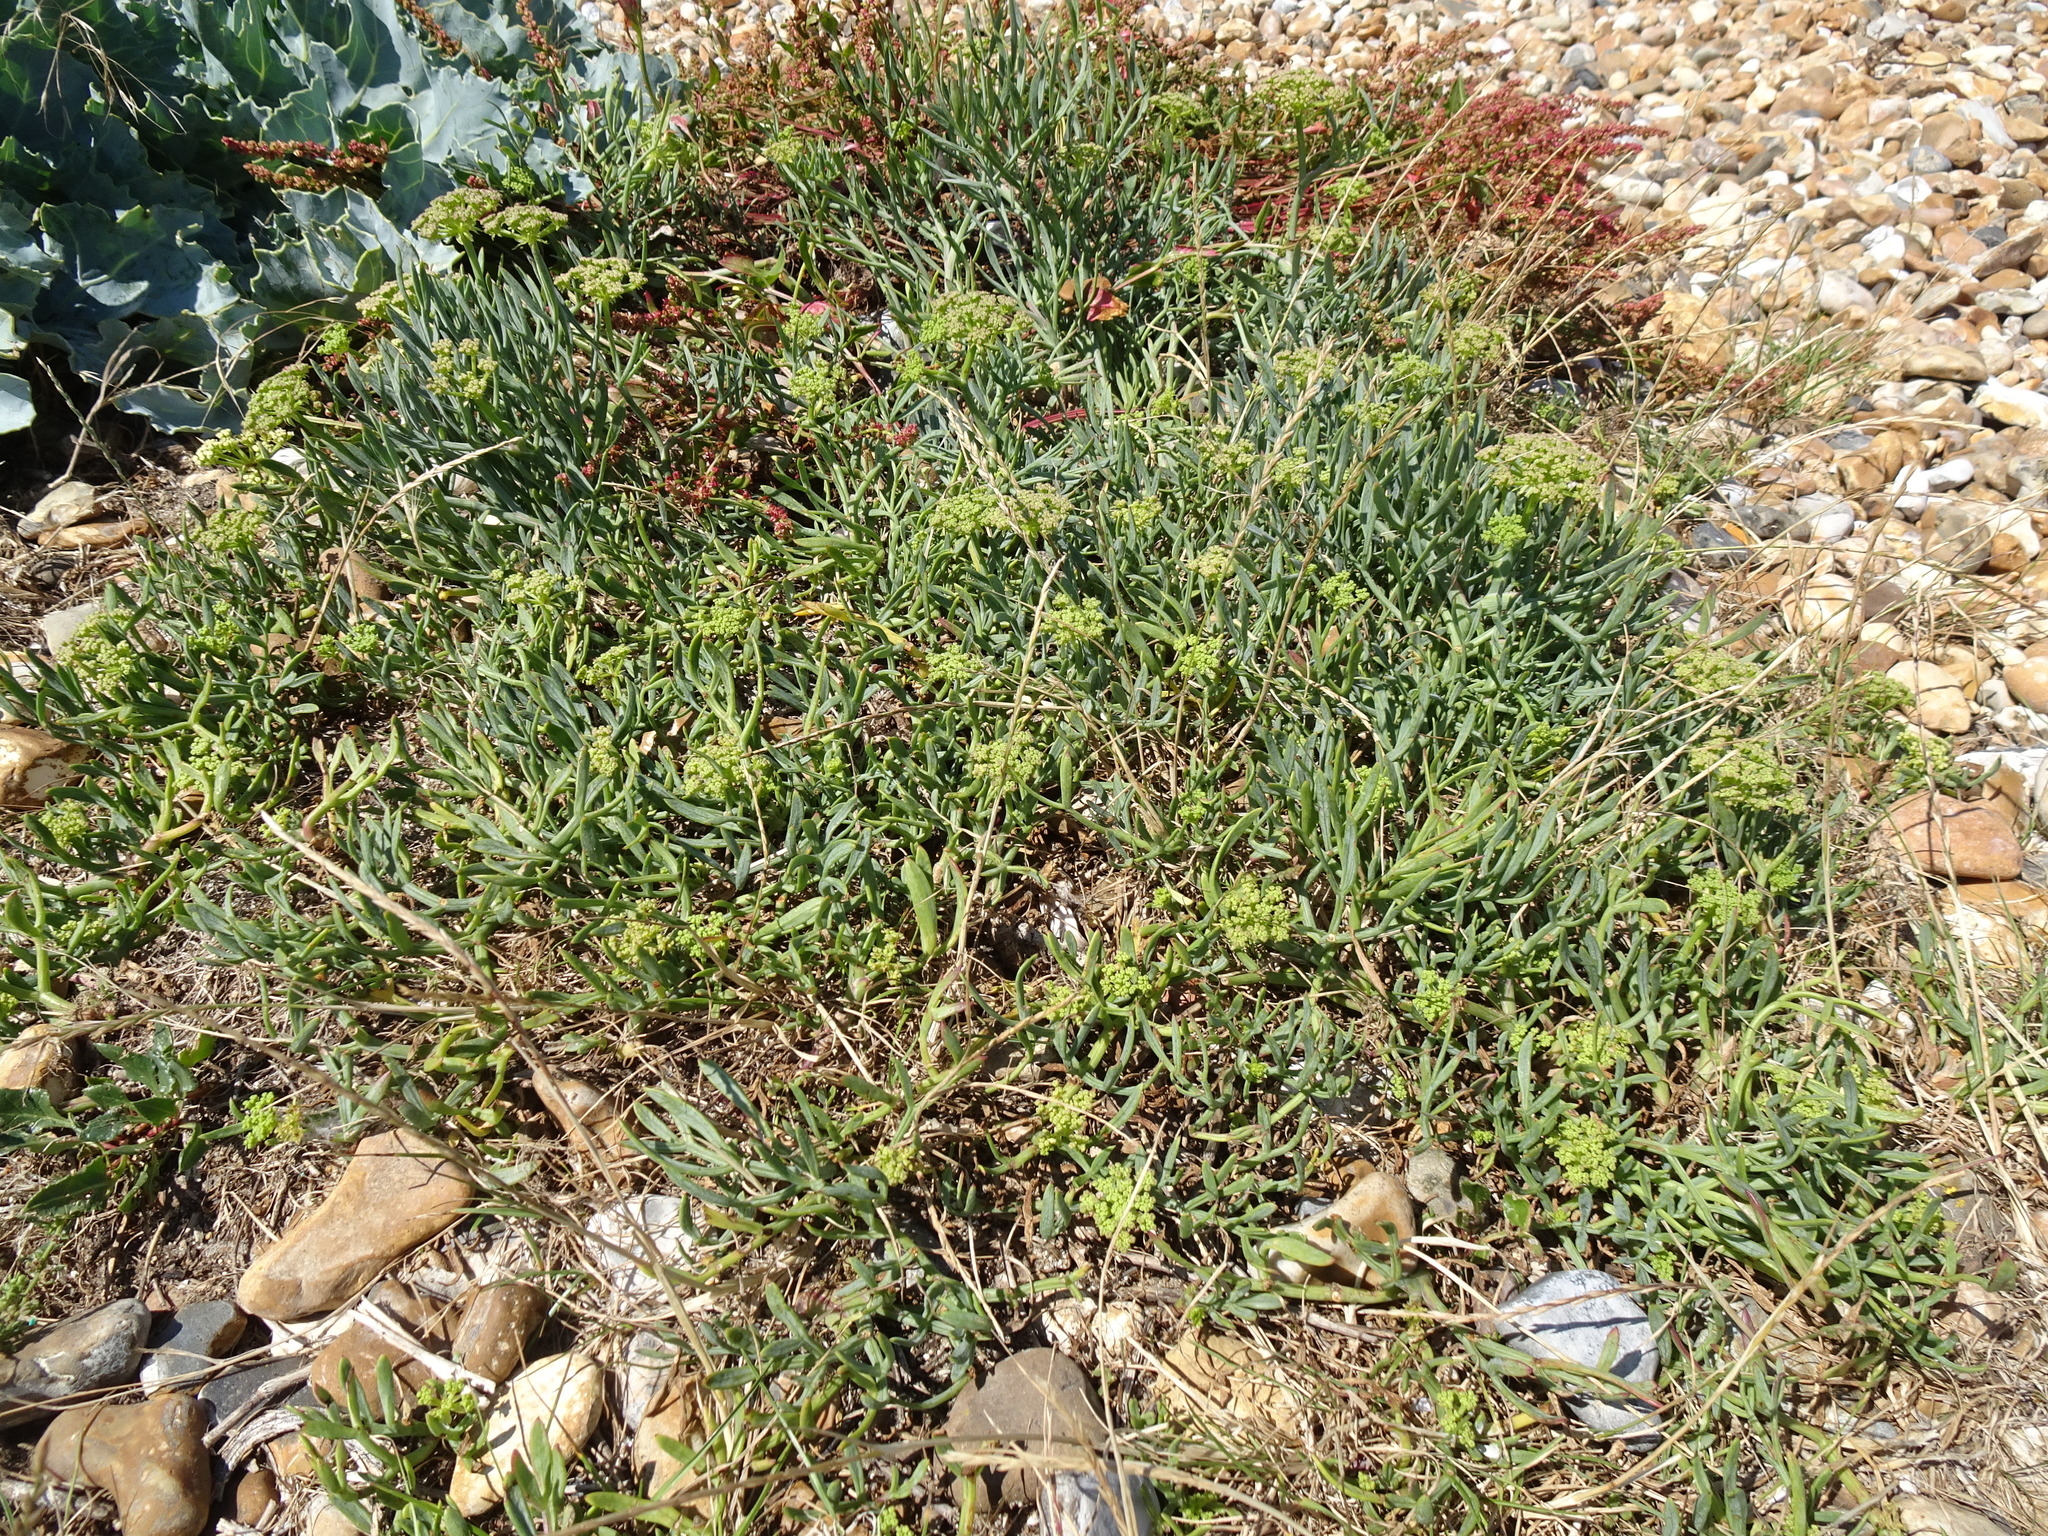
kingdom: Plantae
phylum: Tracheophyta
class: Magnoliopsida
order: Apiales
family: Apiaceae
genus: Crithmum
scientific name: Crithmum maritimum
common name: Rock samphire
